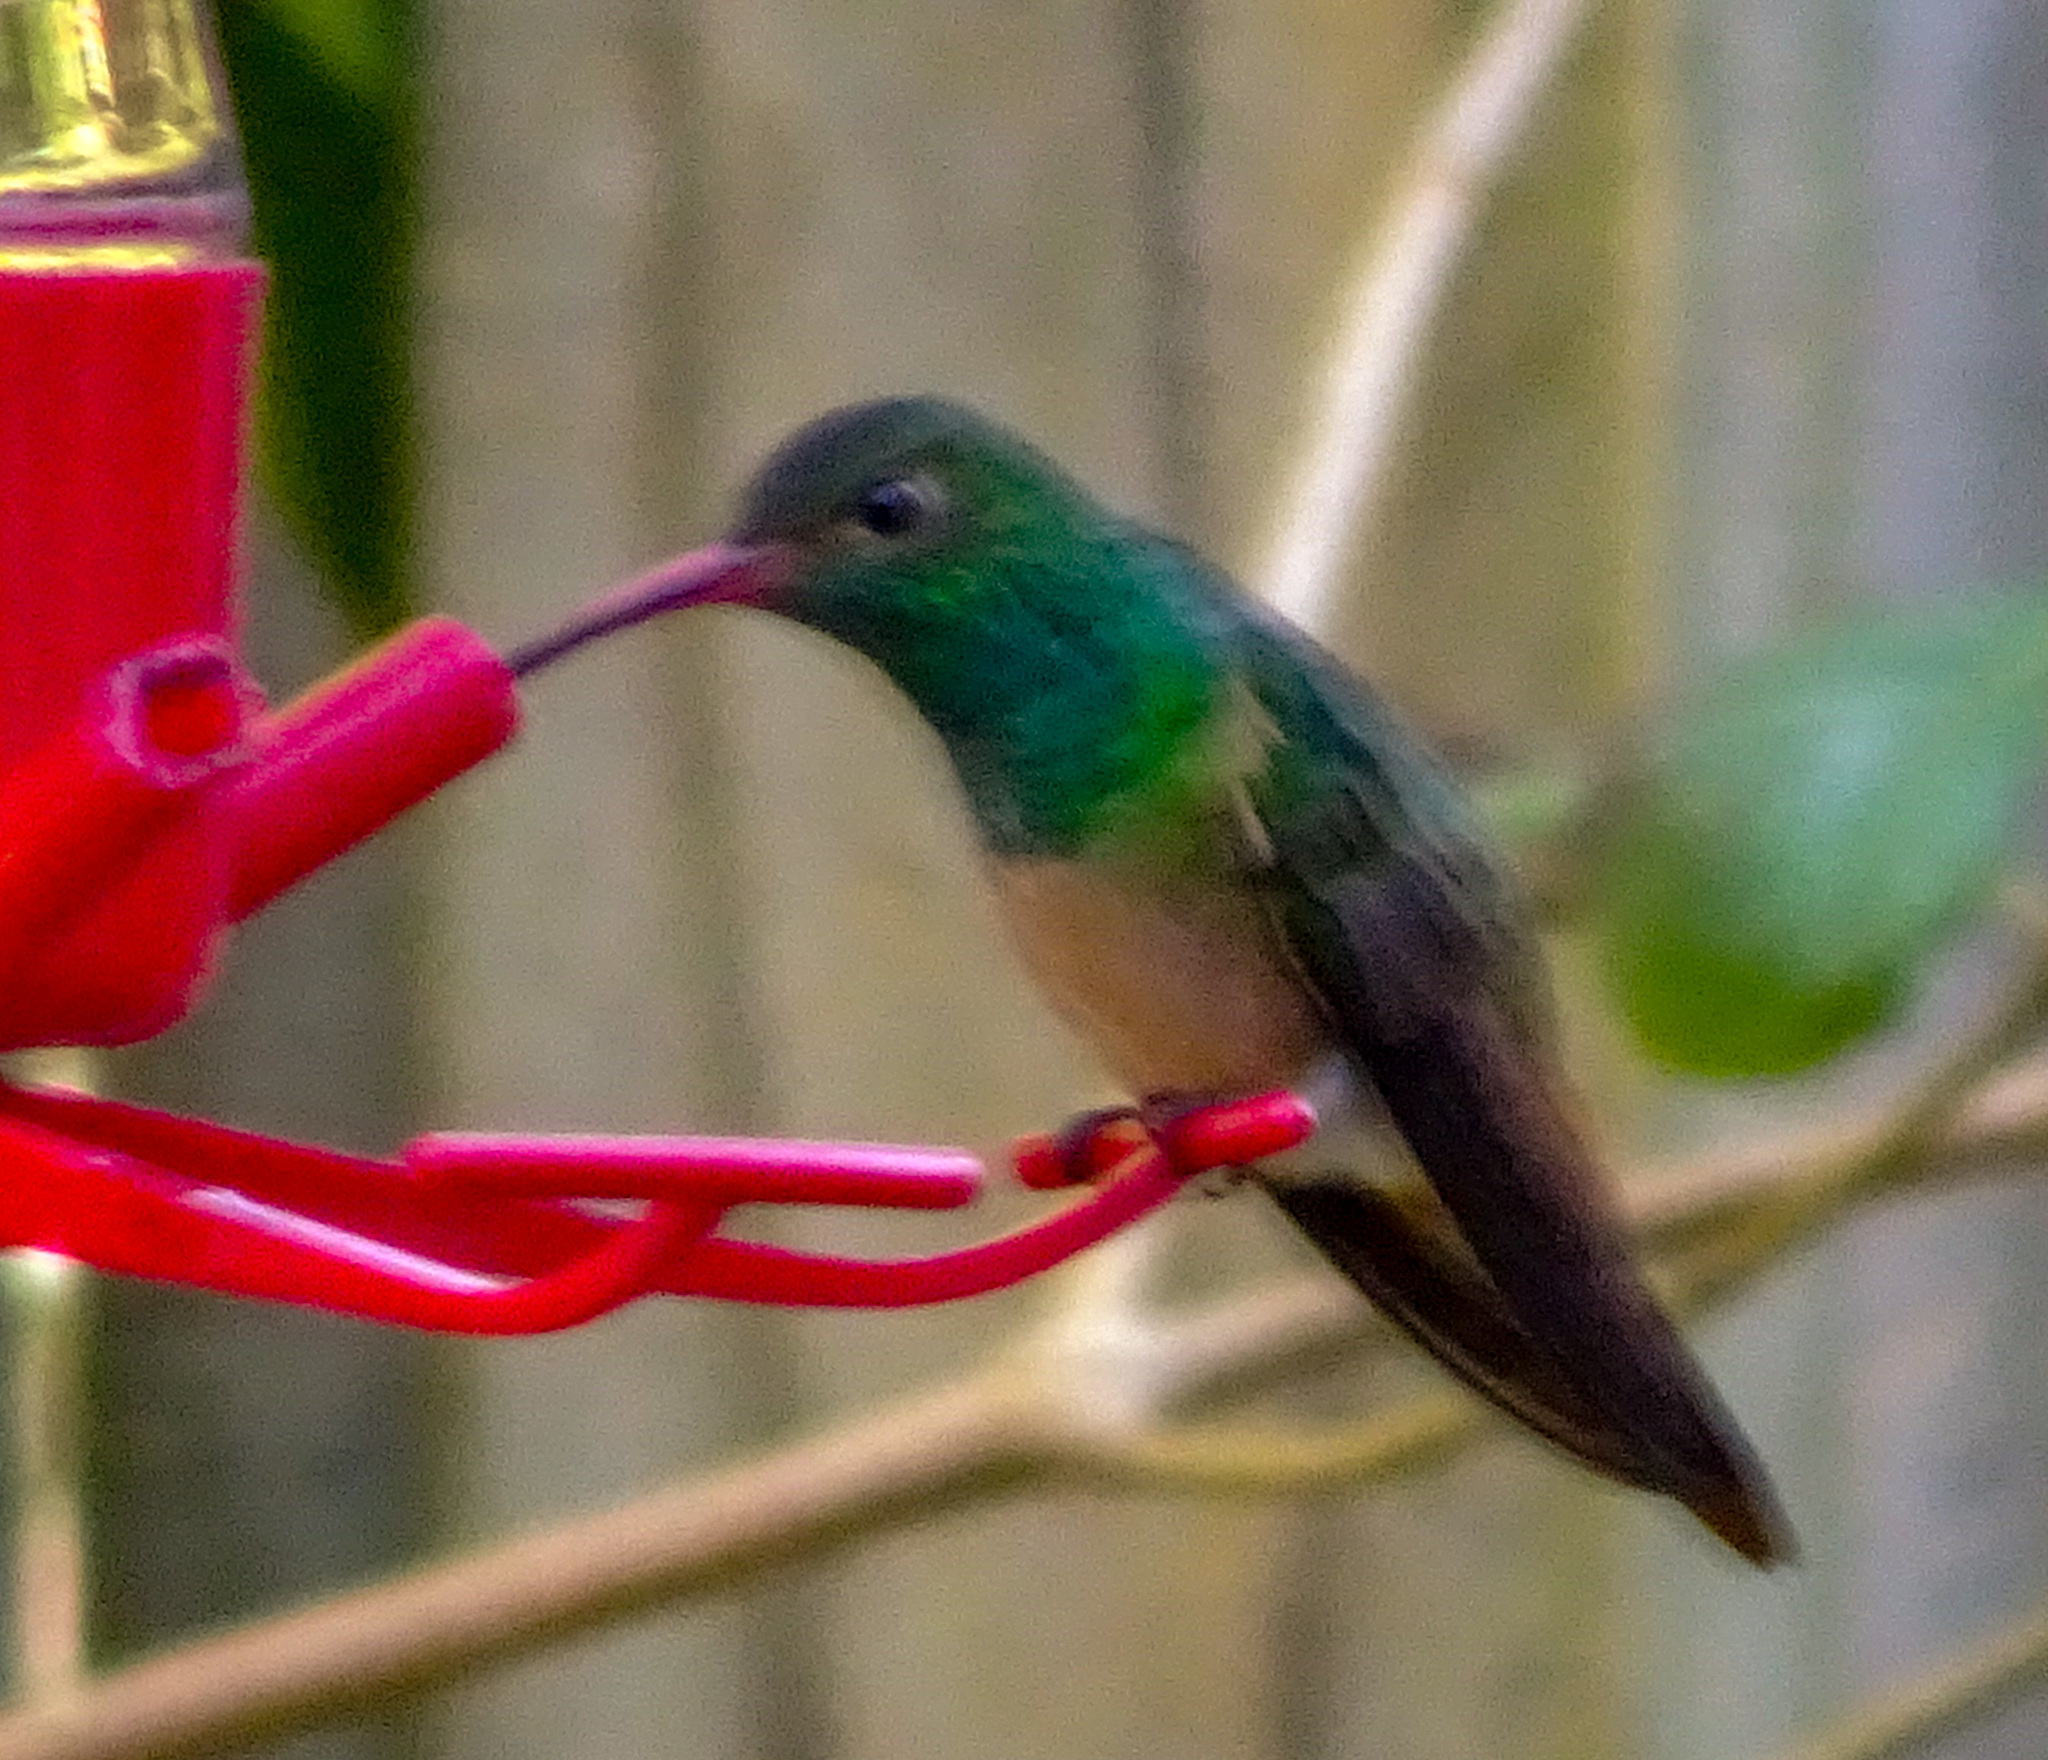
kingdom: Animalia
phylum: Chordata
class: Aves
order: Apodiformes
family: Trochilidae
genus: Amazilia
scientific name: Amazilia yucatanensis
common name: Buff-bellied hummingbird
